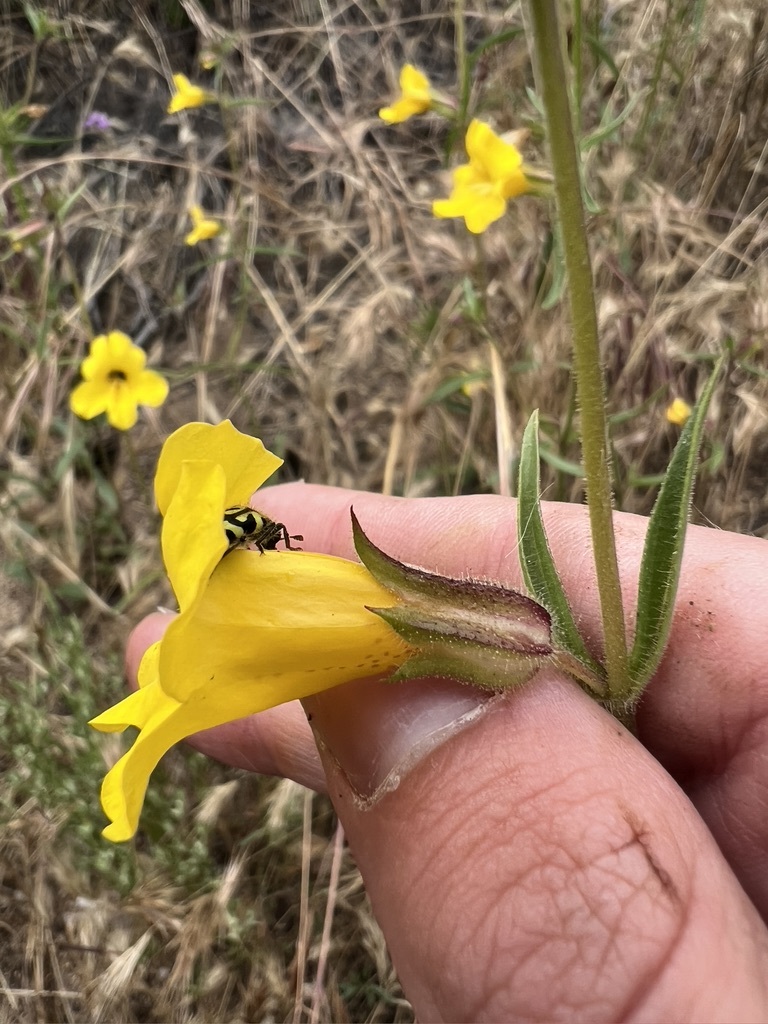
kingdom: Plantae
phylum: Tracheophyta
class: Magnoliopsida
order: Lamiales
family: Phrymaceae
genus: Diplacus
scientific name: Diplacus brevipes
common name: Wide-throat yellow monkey-flower
